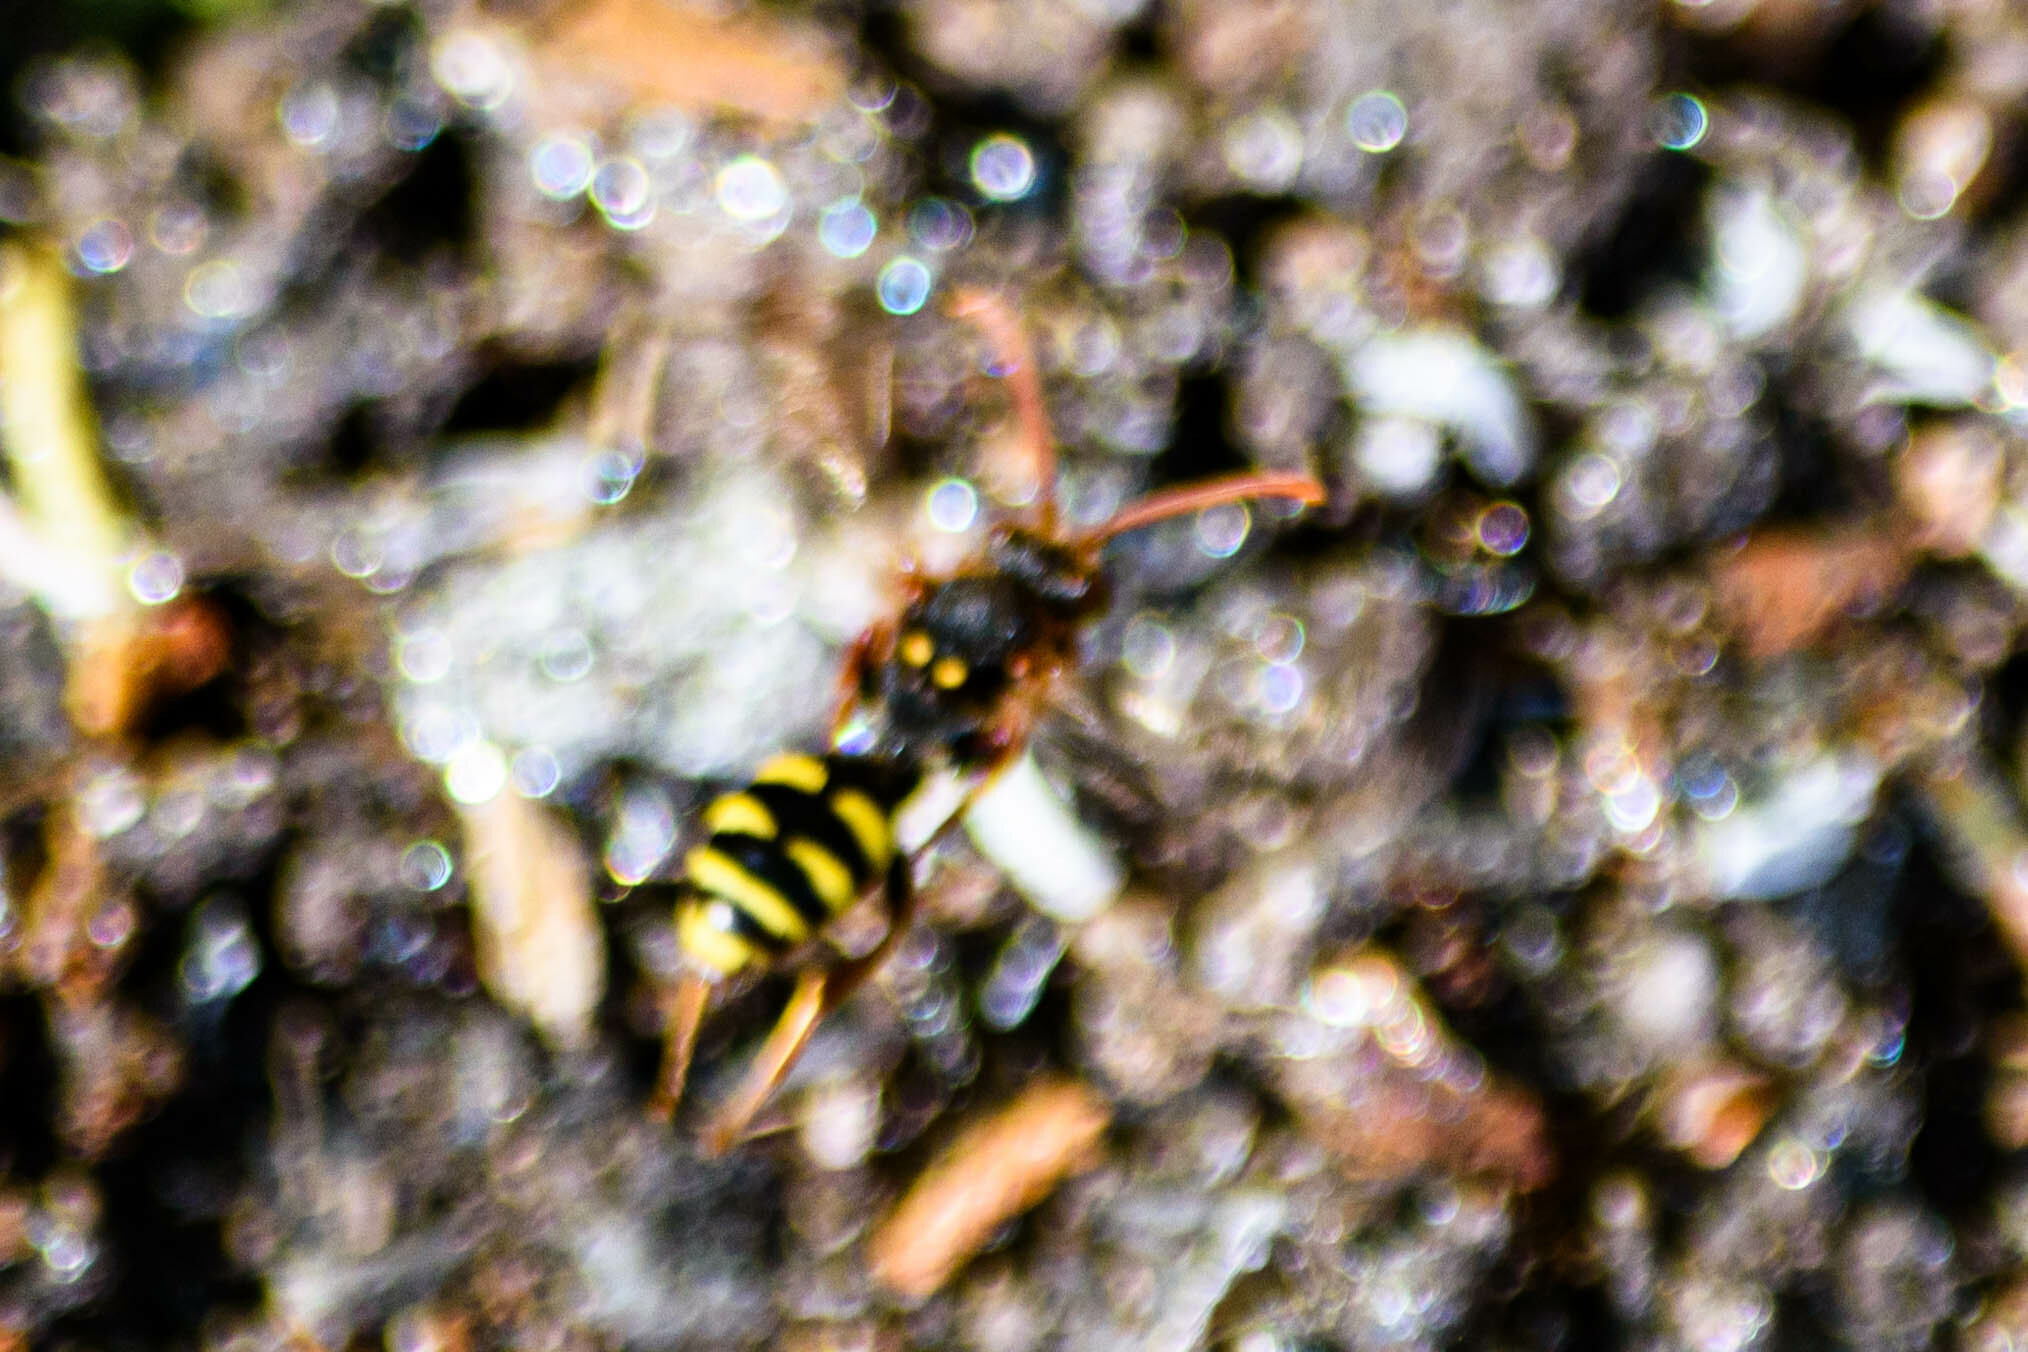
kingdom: Animalia
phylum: Arthropoda
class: Insecta
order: Hymenoptera
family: Apidae
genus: Nomada
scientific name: Nomada marshamella
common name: Marsham's nomad bee
